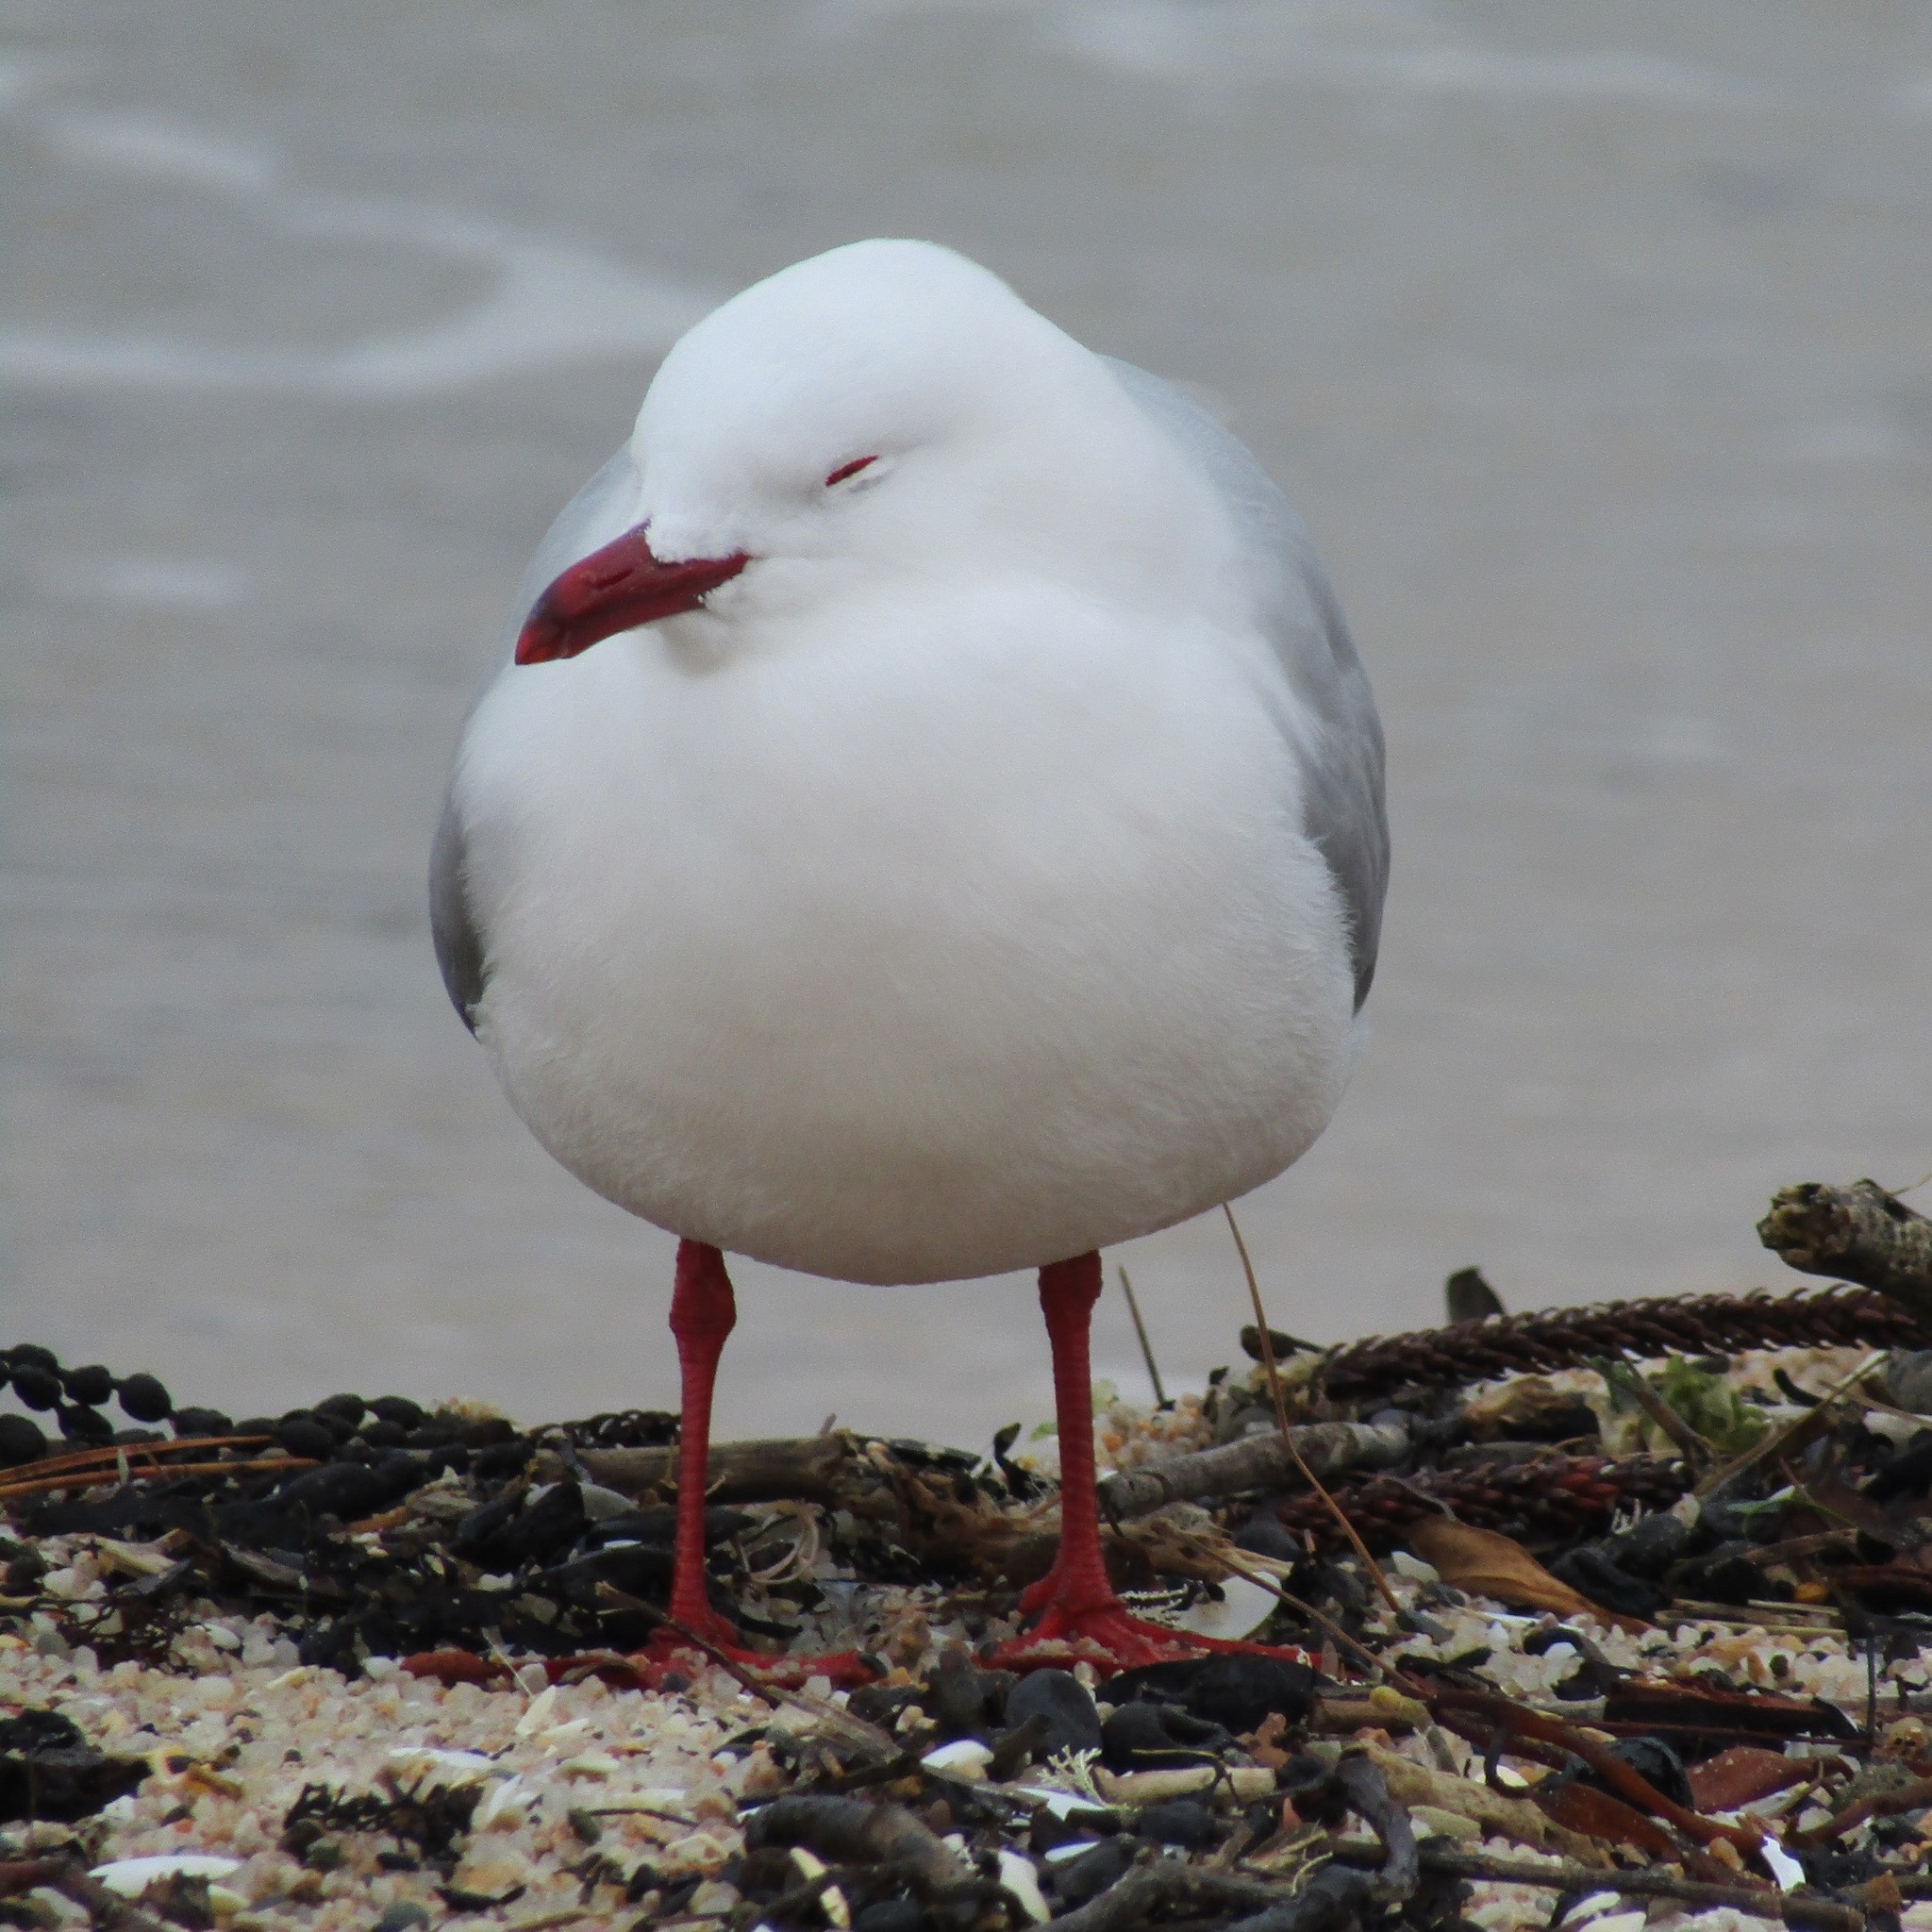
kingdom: Animalia
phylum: Chordata
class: Aves
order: Charadriiformes
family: Laridae
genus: Chroicocephalus
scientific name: Chroicocephalus novaehollandiae
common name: Silver gull
